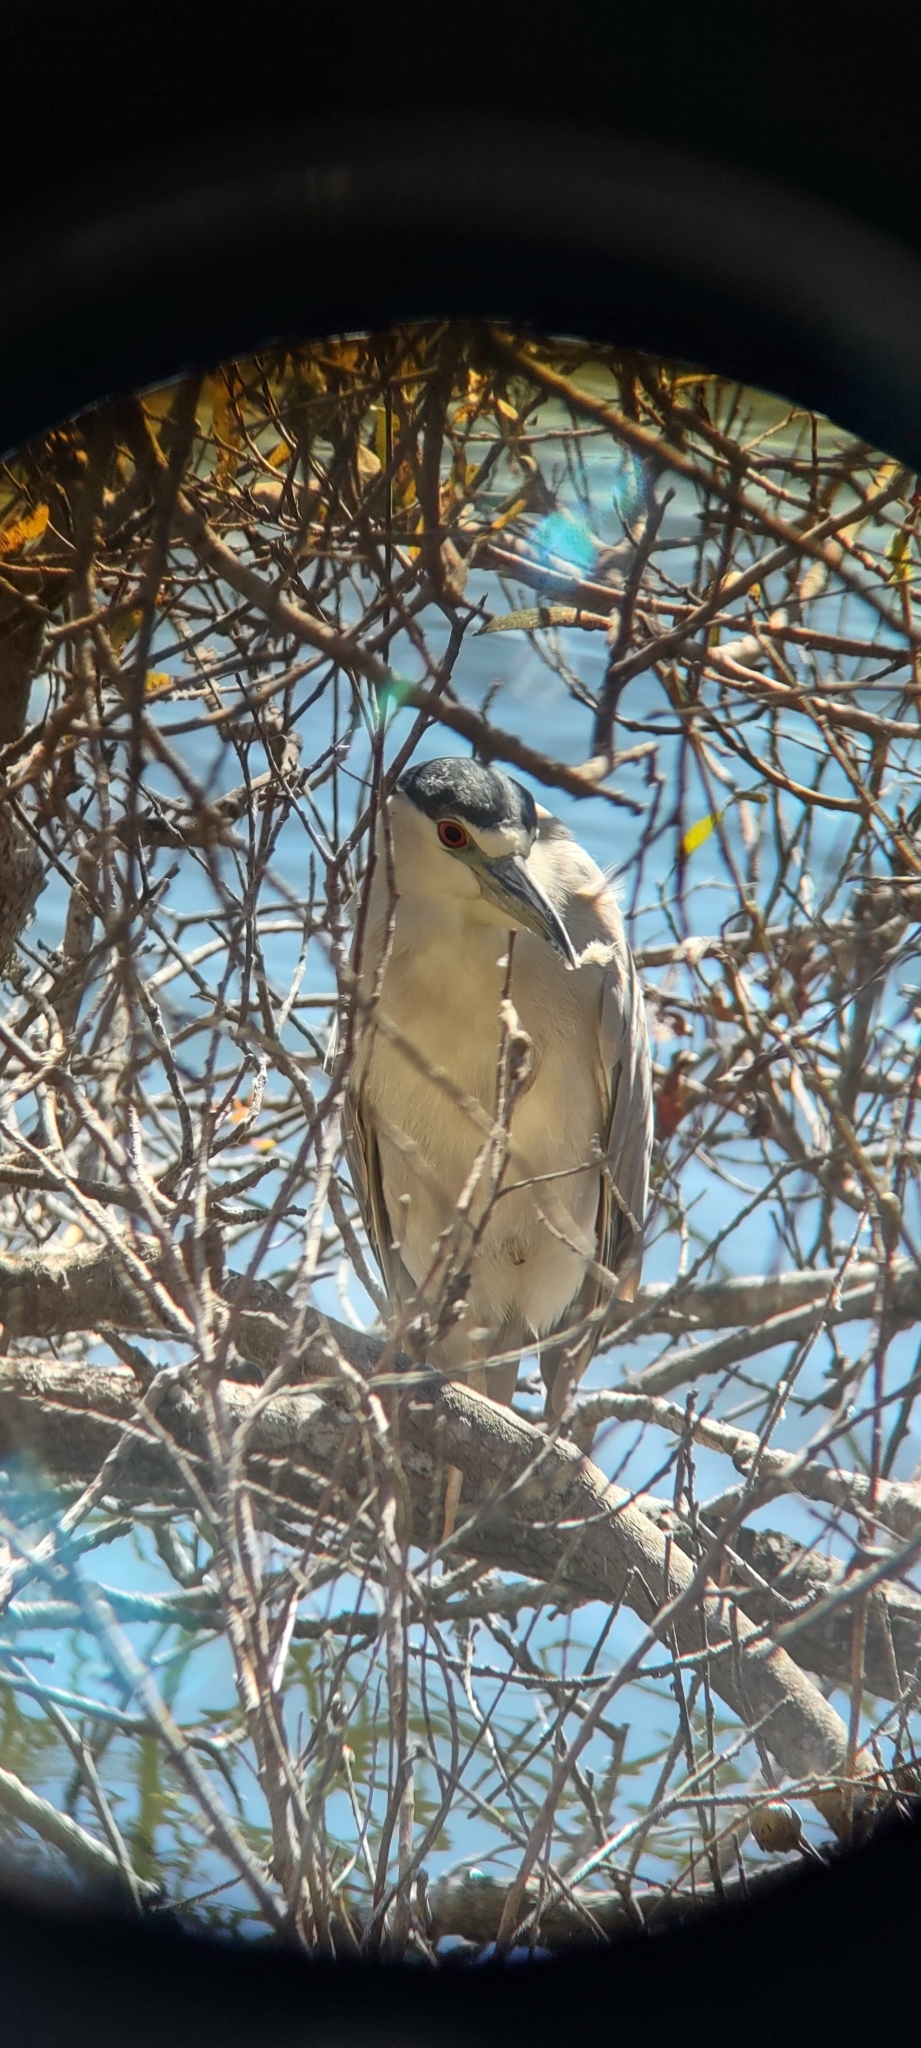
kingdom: Animalia
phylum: Chordata
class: Aves
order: Pelecaniformes
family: Ardeidae
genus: Nycticorax
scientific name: Nycticorax nycticorax
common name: Black-crowned night heron
